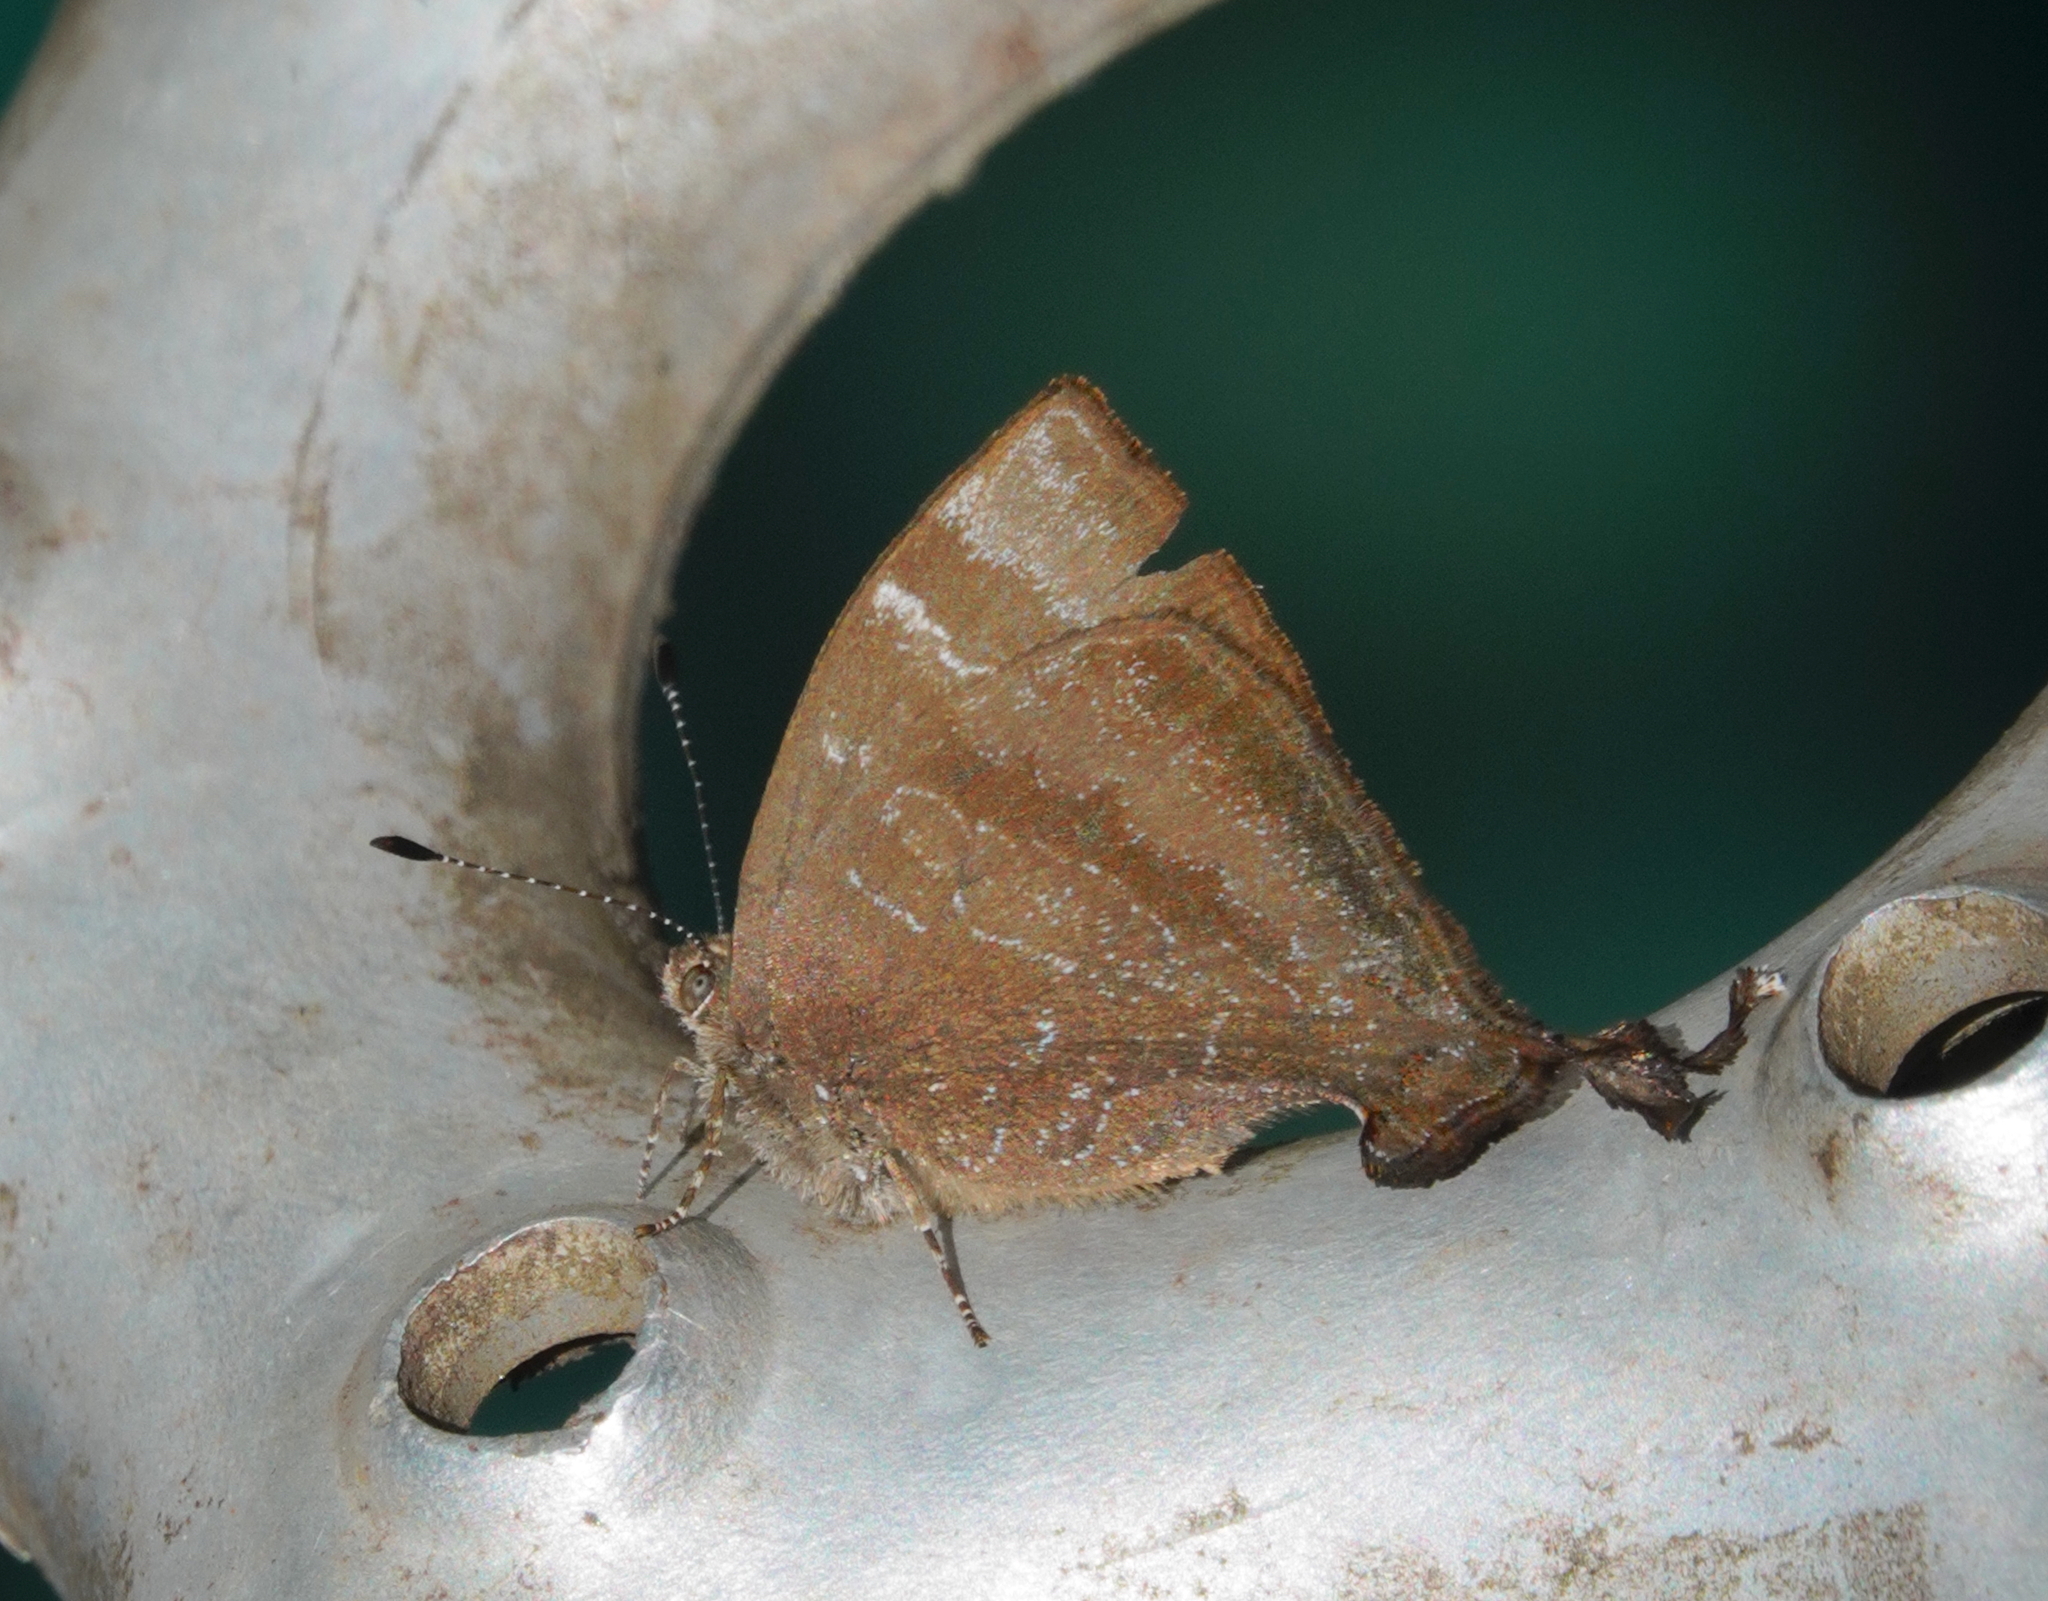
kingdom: Animalia
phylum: Arthropoda
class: Insecta
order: Lepidoptera
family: Lycaenidae
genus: Johnsonita
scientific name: Johnsonita zubkova
